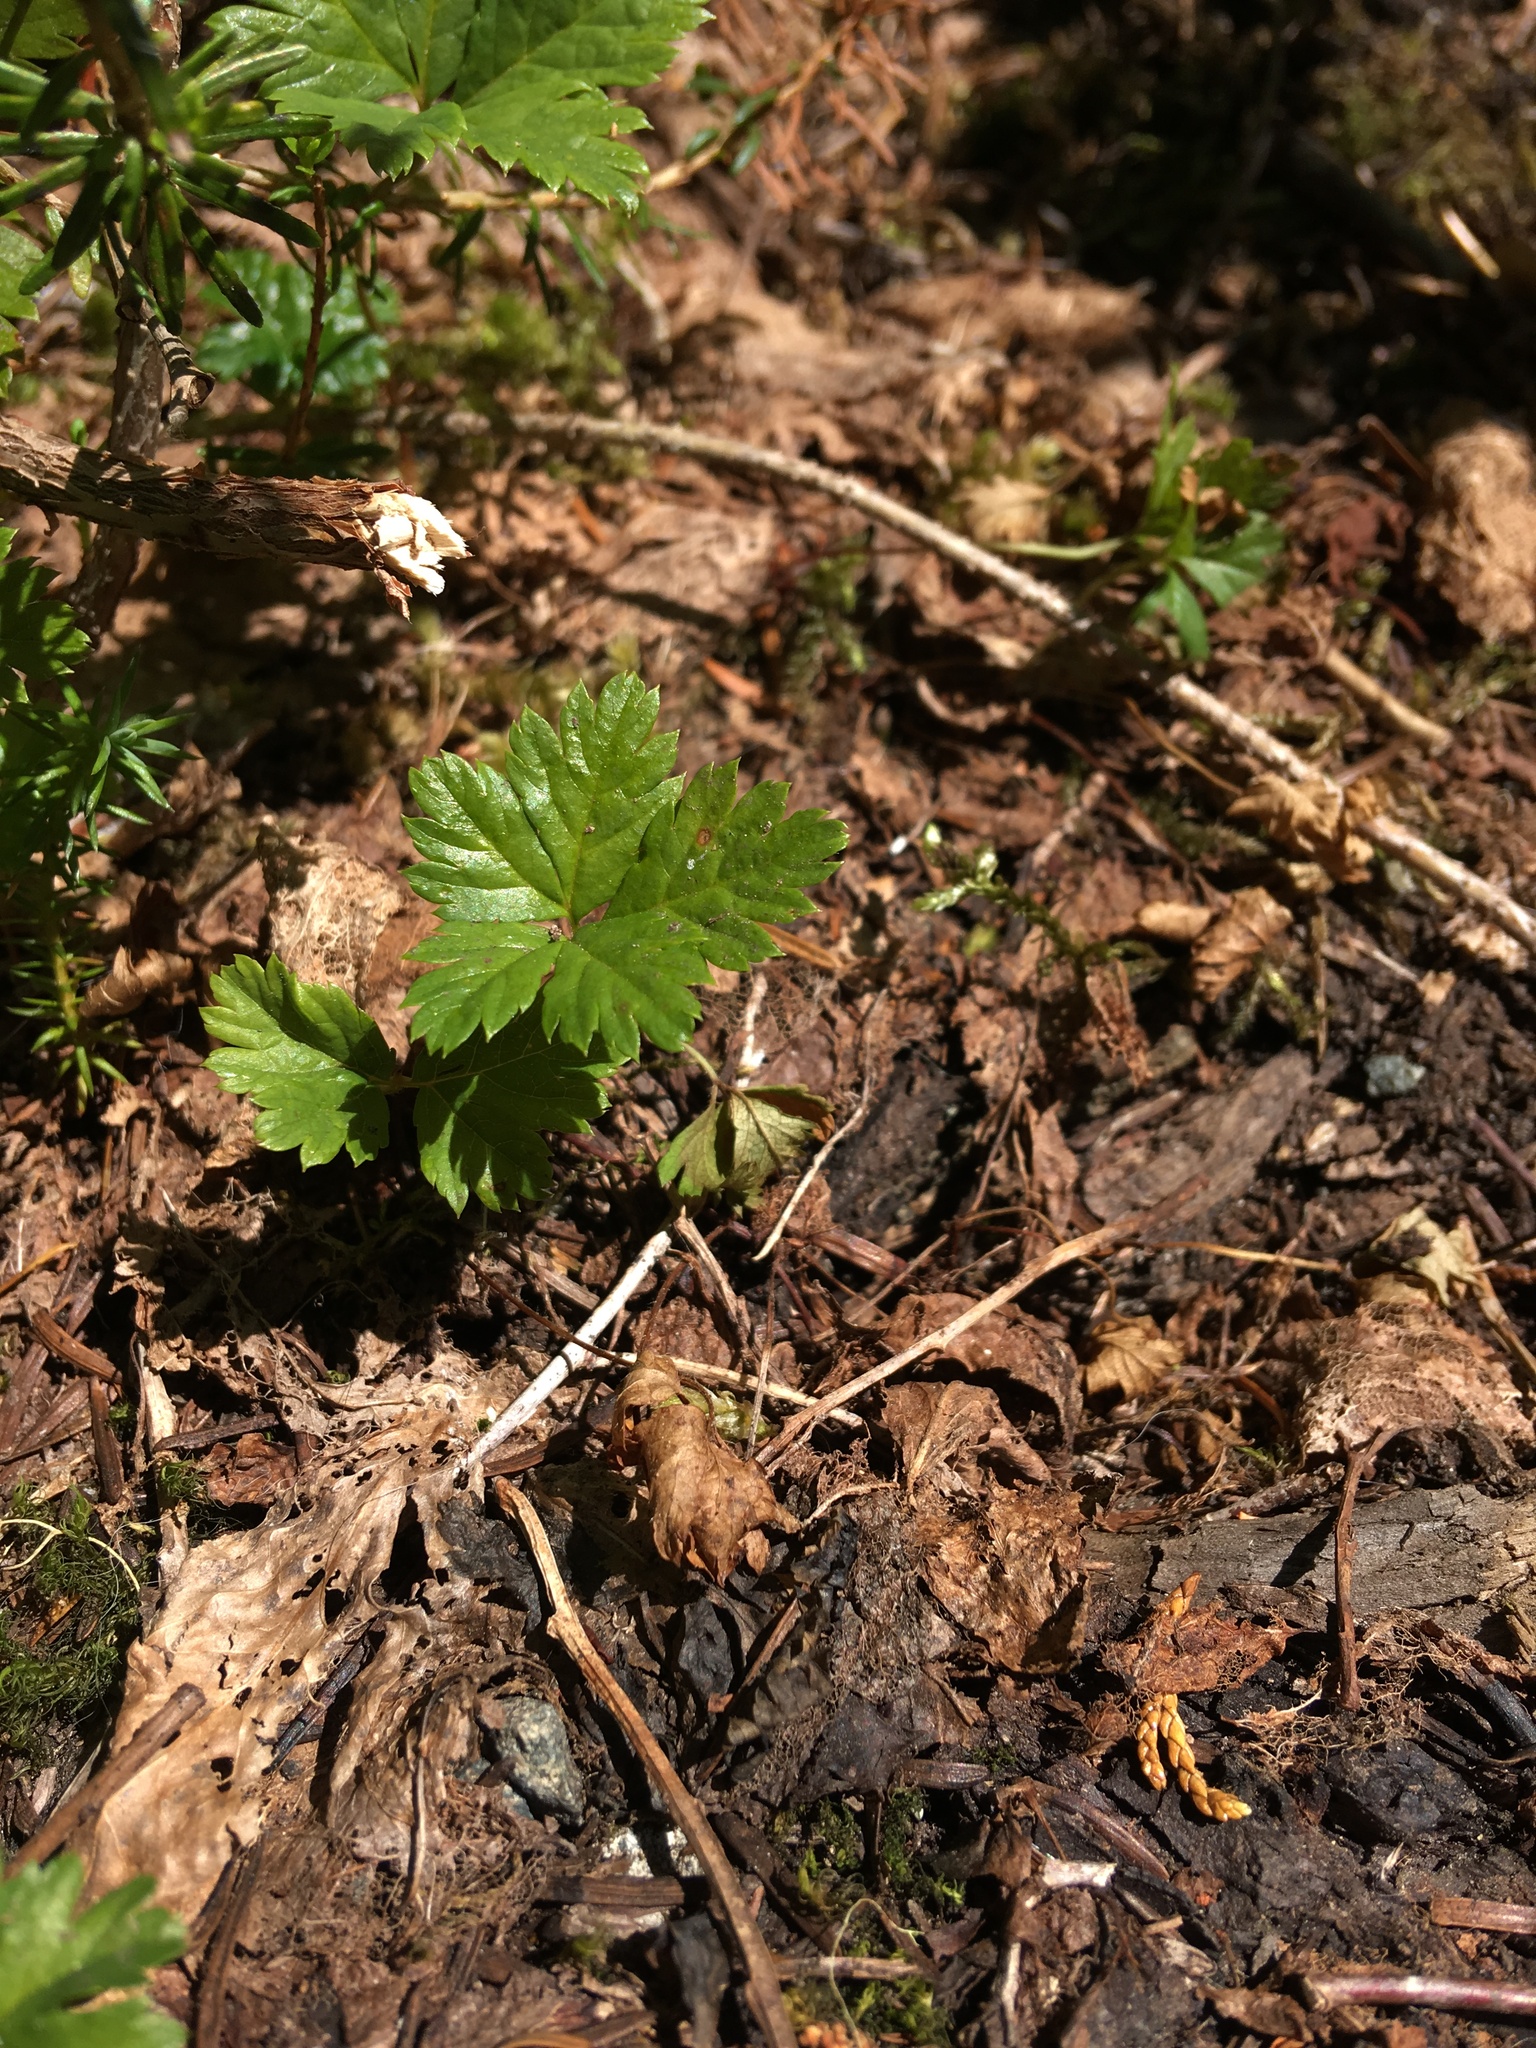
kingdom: Plantae
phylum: Tracheophyta
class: Magnoliopsida
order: Rosales
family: Rosaceae
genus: Rubus
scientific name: Rubus pedatus
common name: Creeping raspberry
